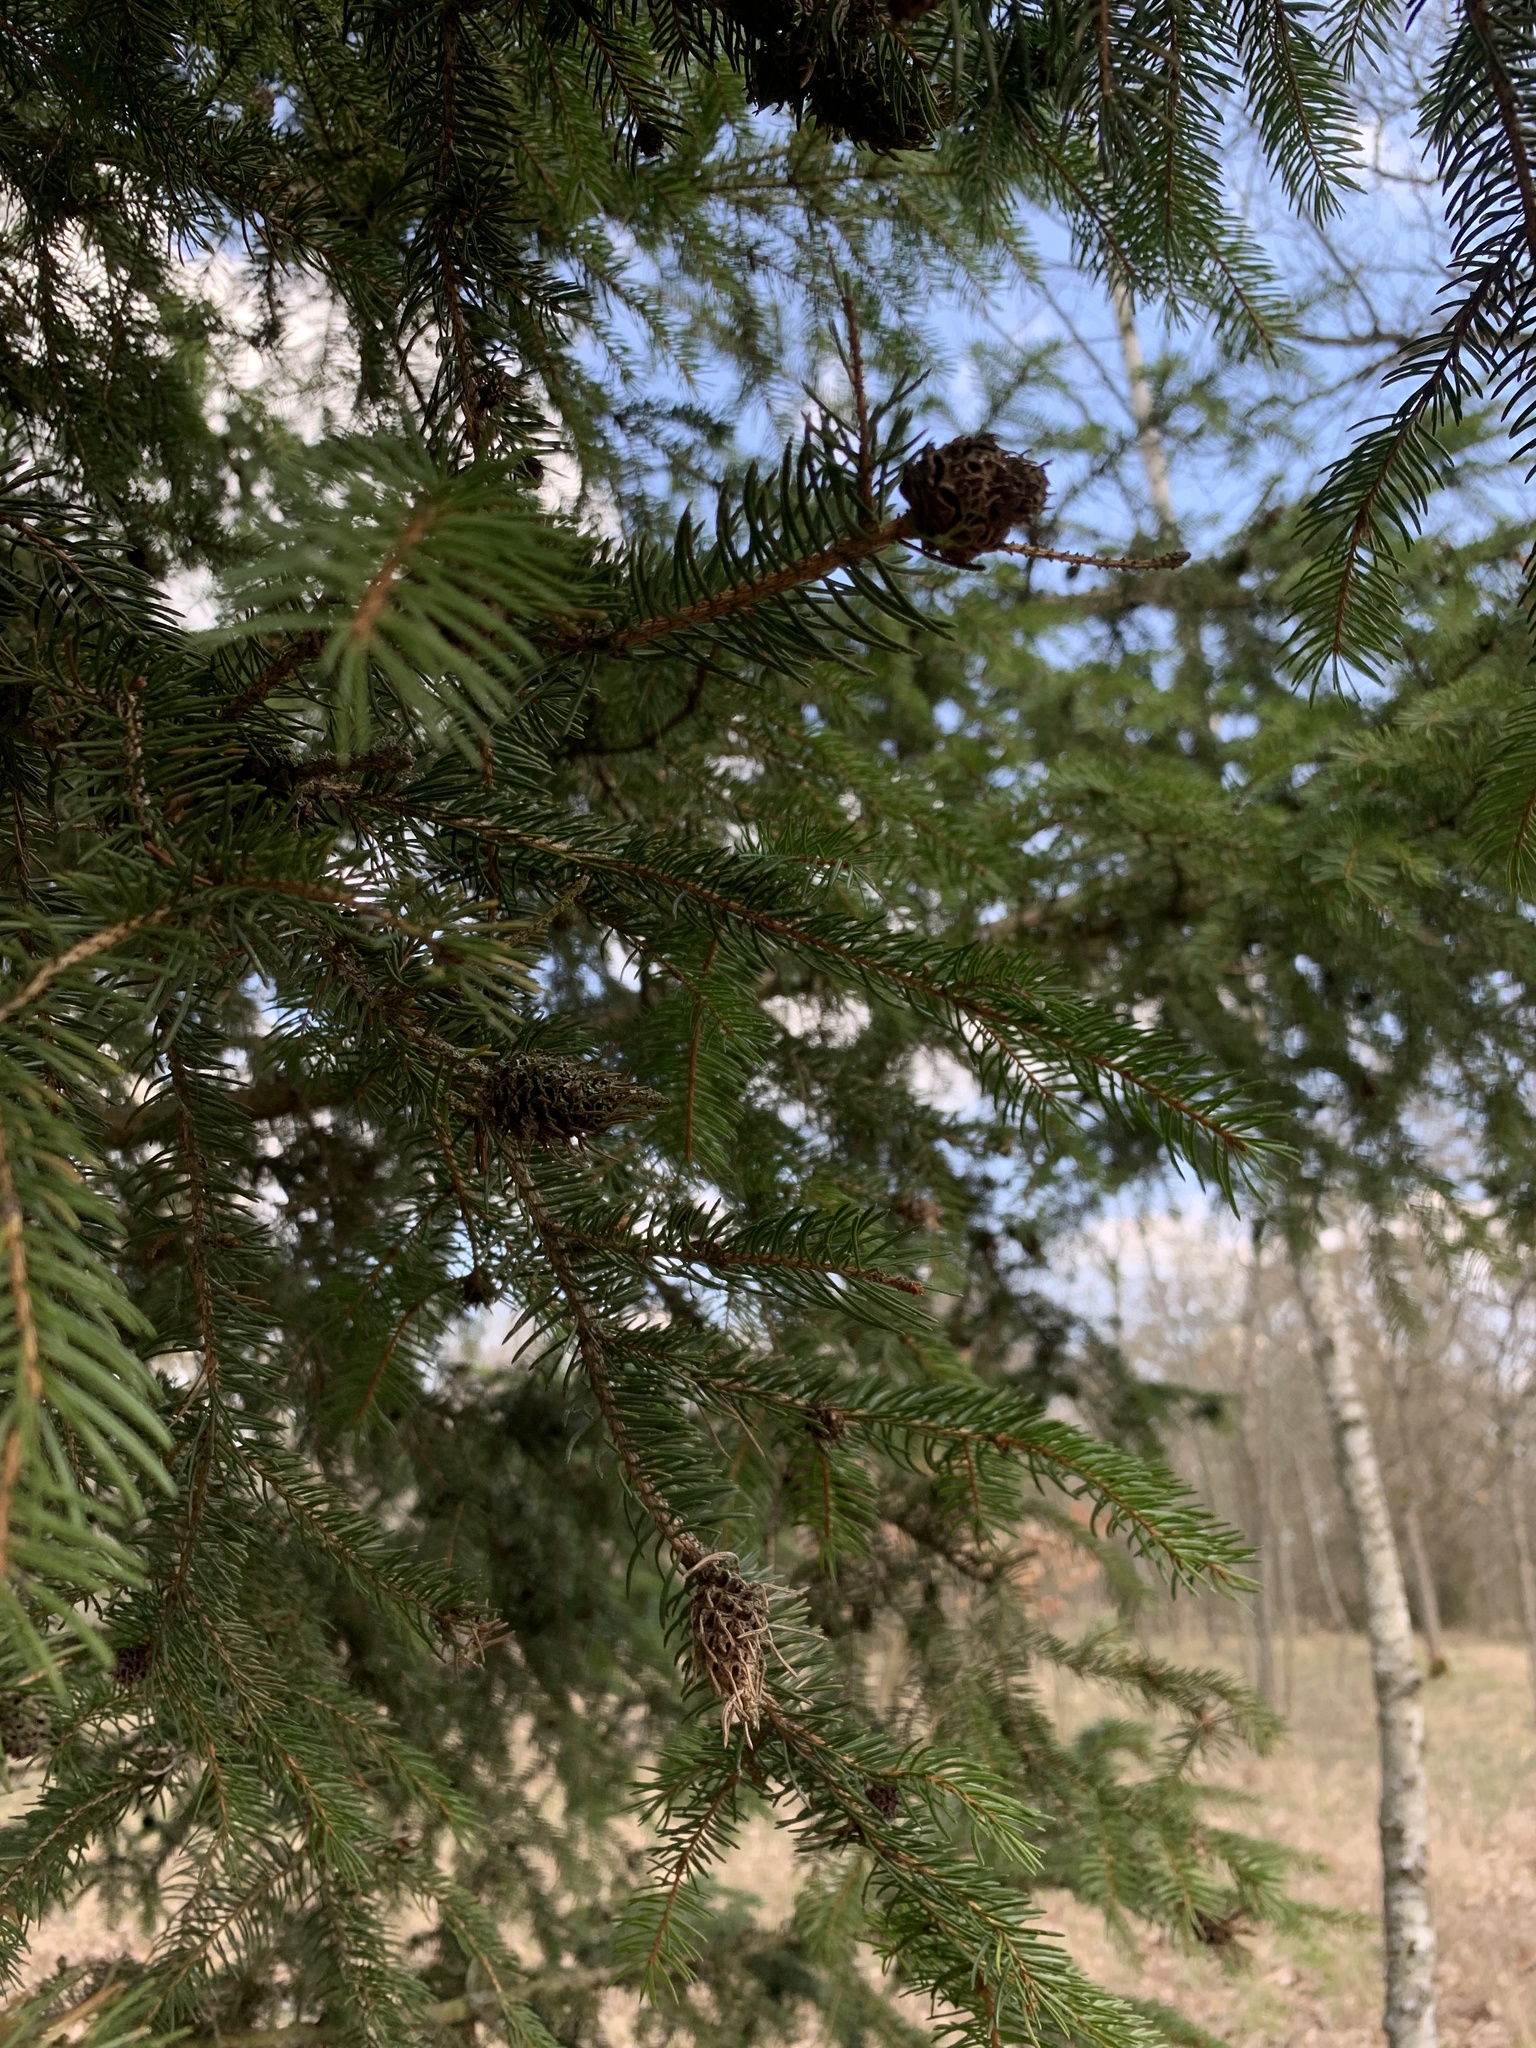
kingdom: Plantae
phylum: Tracheophyta
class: Pinopsida
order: Pinales
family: Pinaceae
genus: Picea
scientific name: Picea abies
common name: Norway spruce
